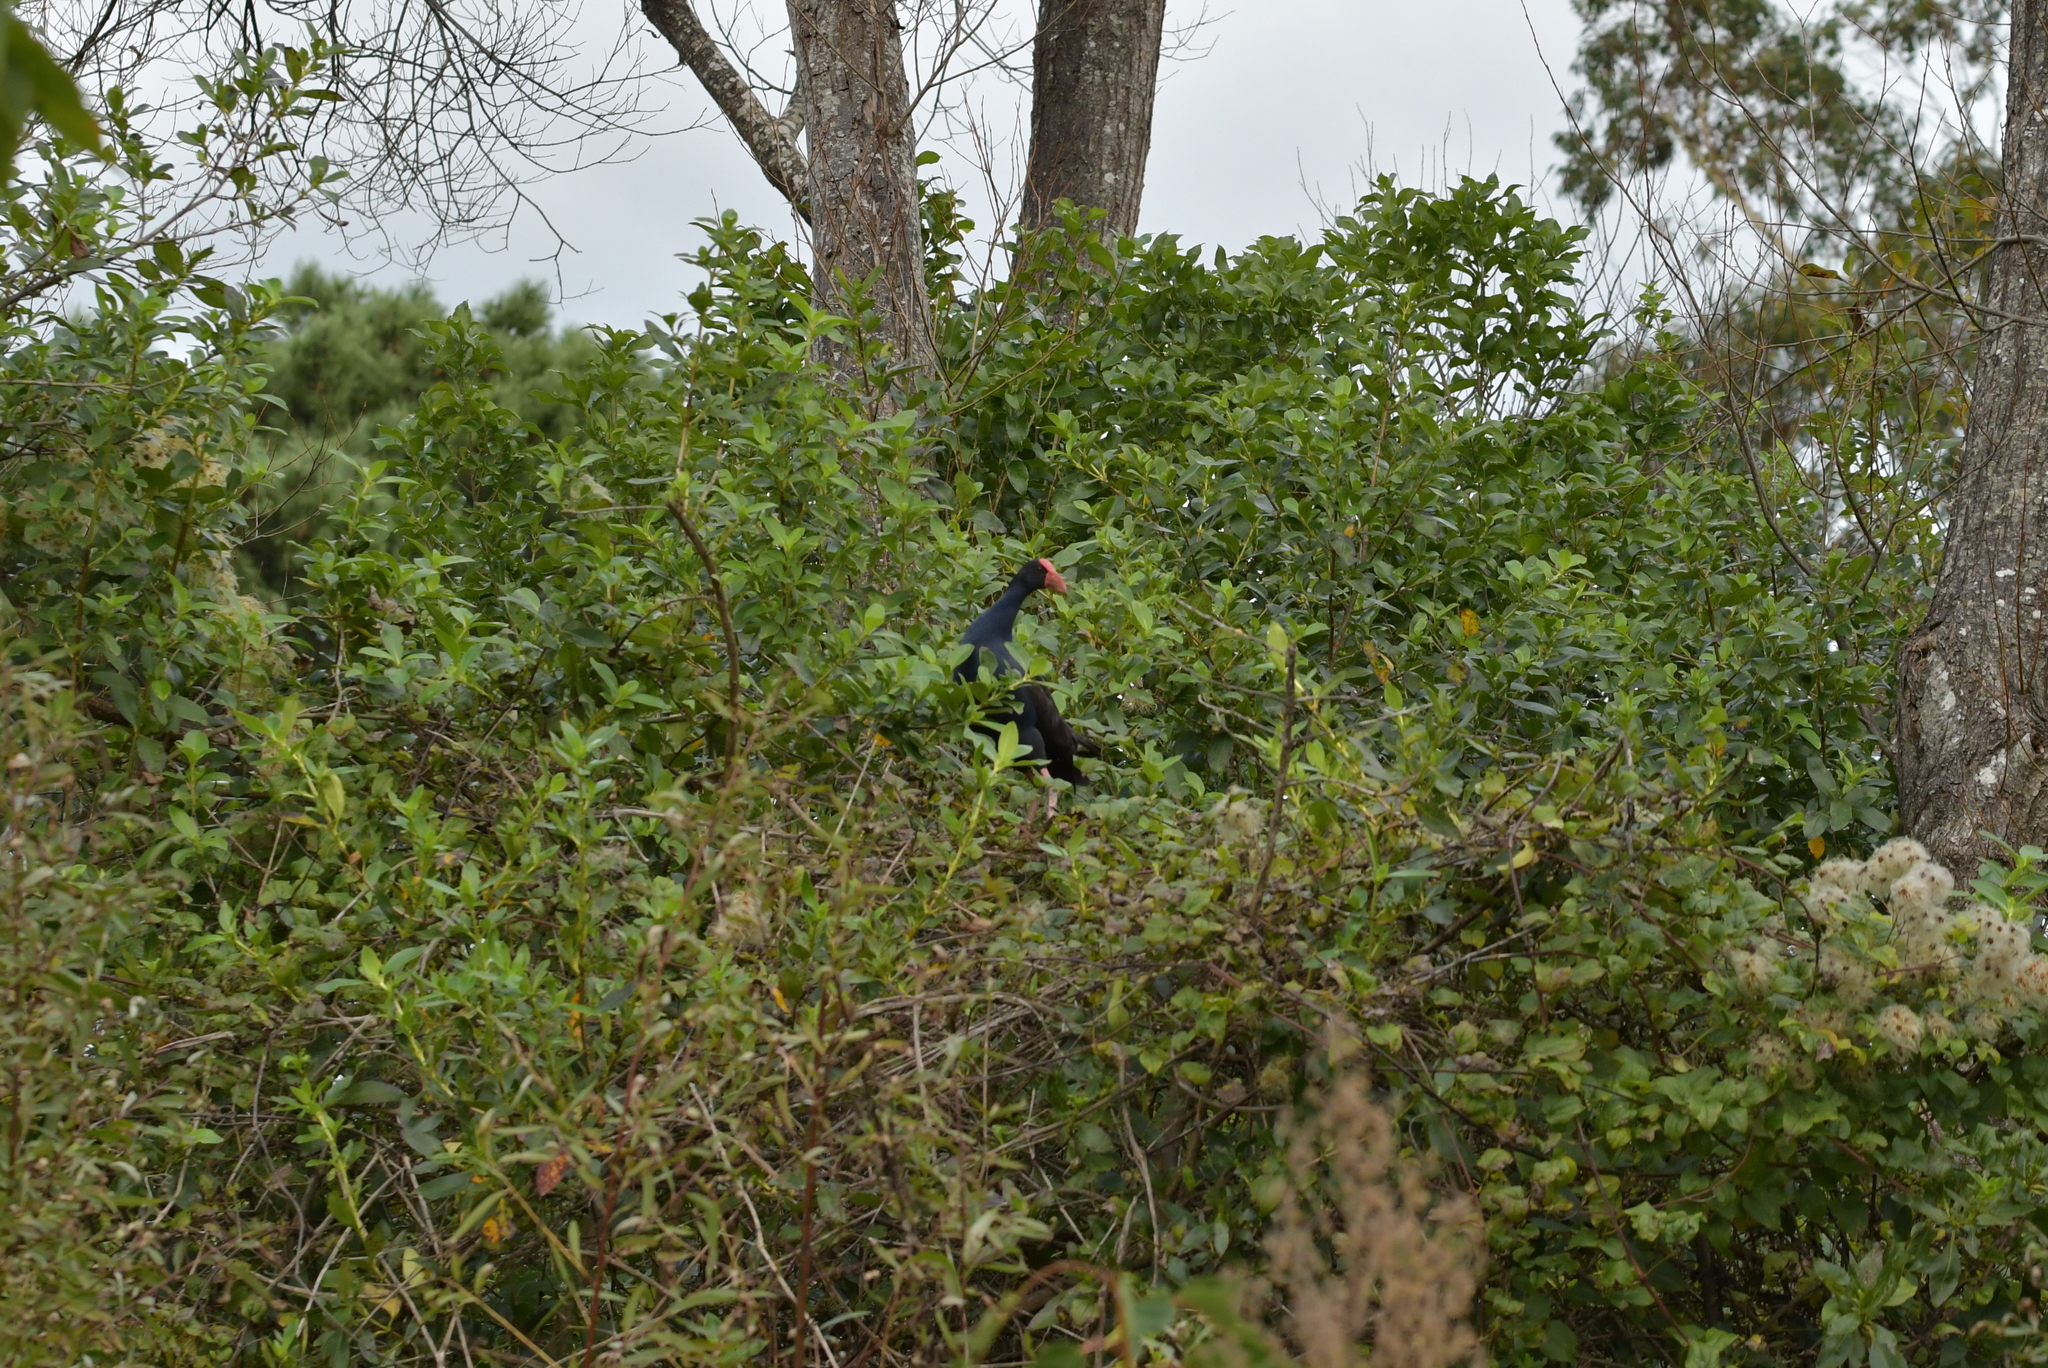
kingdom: Animalia
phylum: Chordata
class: Aves
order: Gruiformes
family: Rallidae
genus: Porphyrio
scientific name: Porphyrio melanotus
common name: Australasian swamphen
